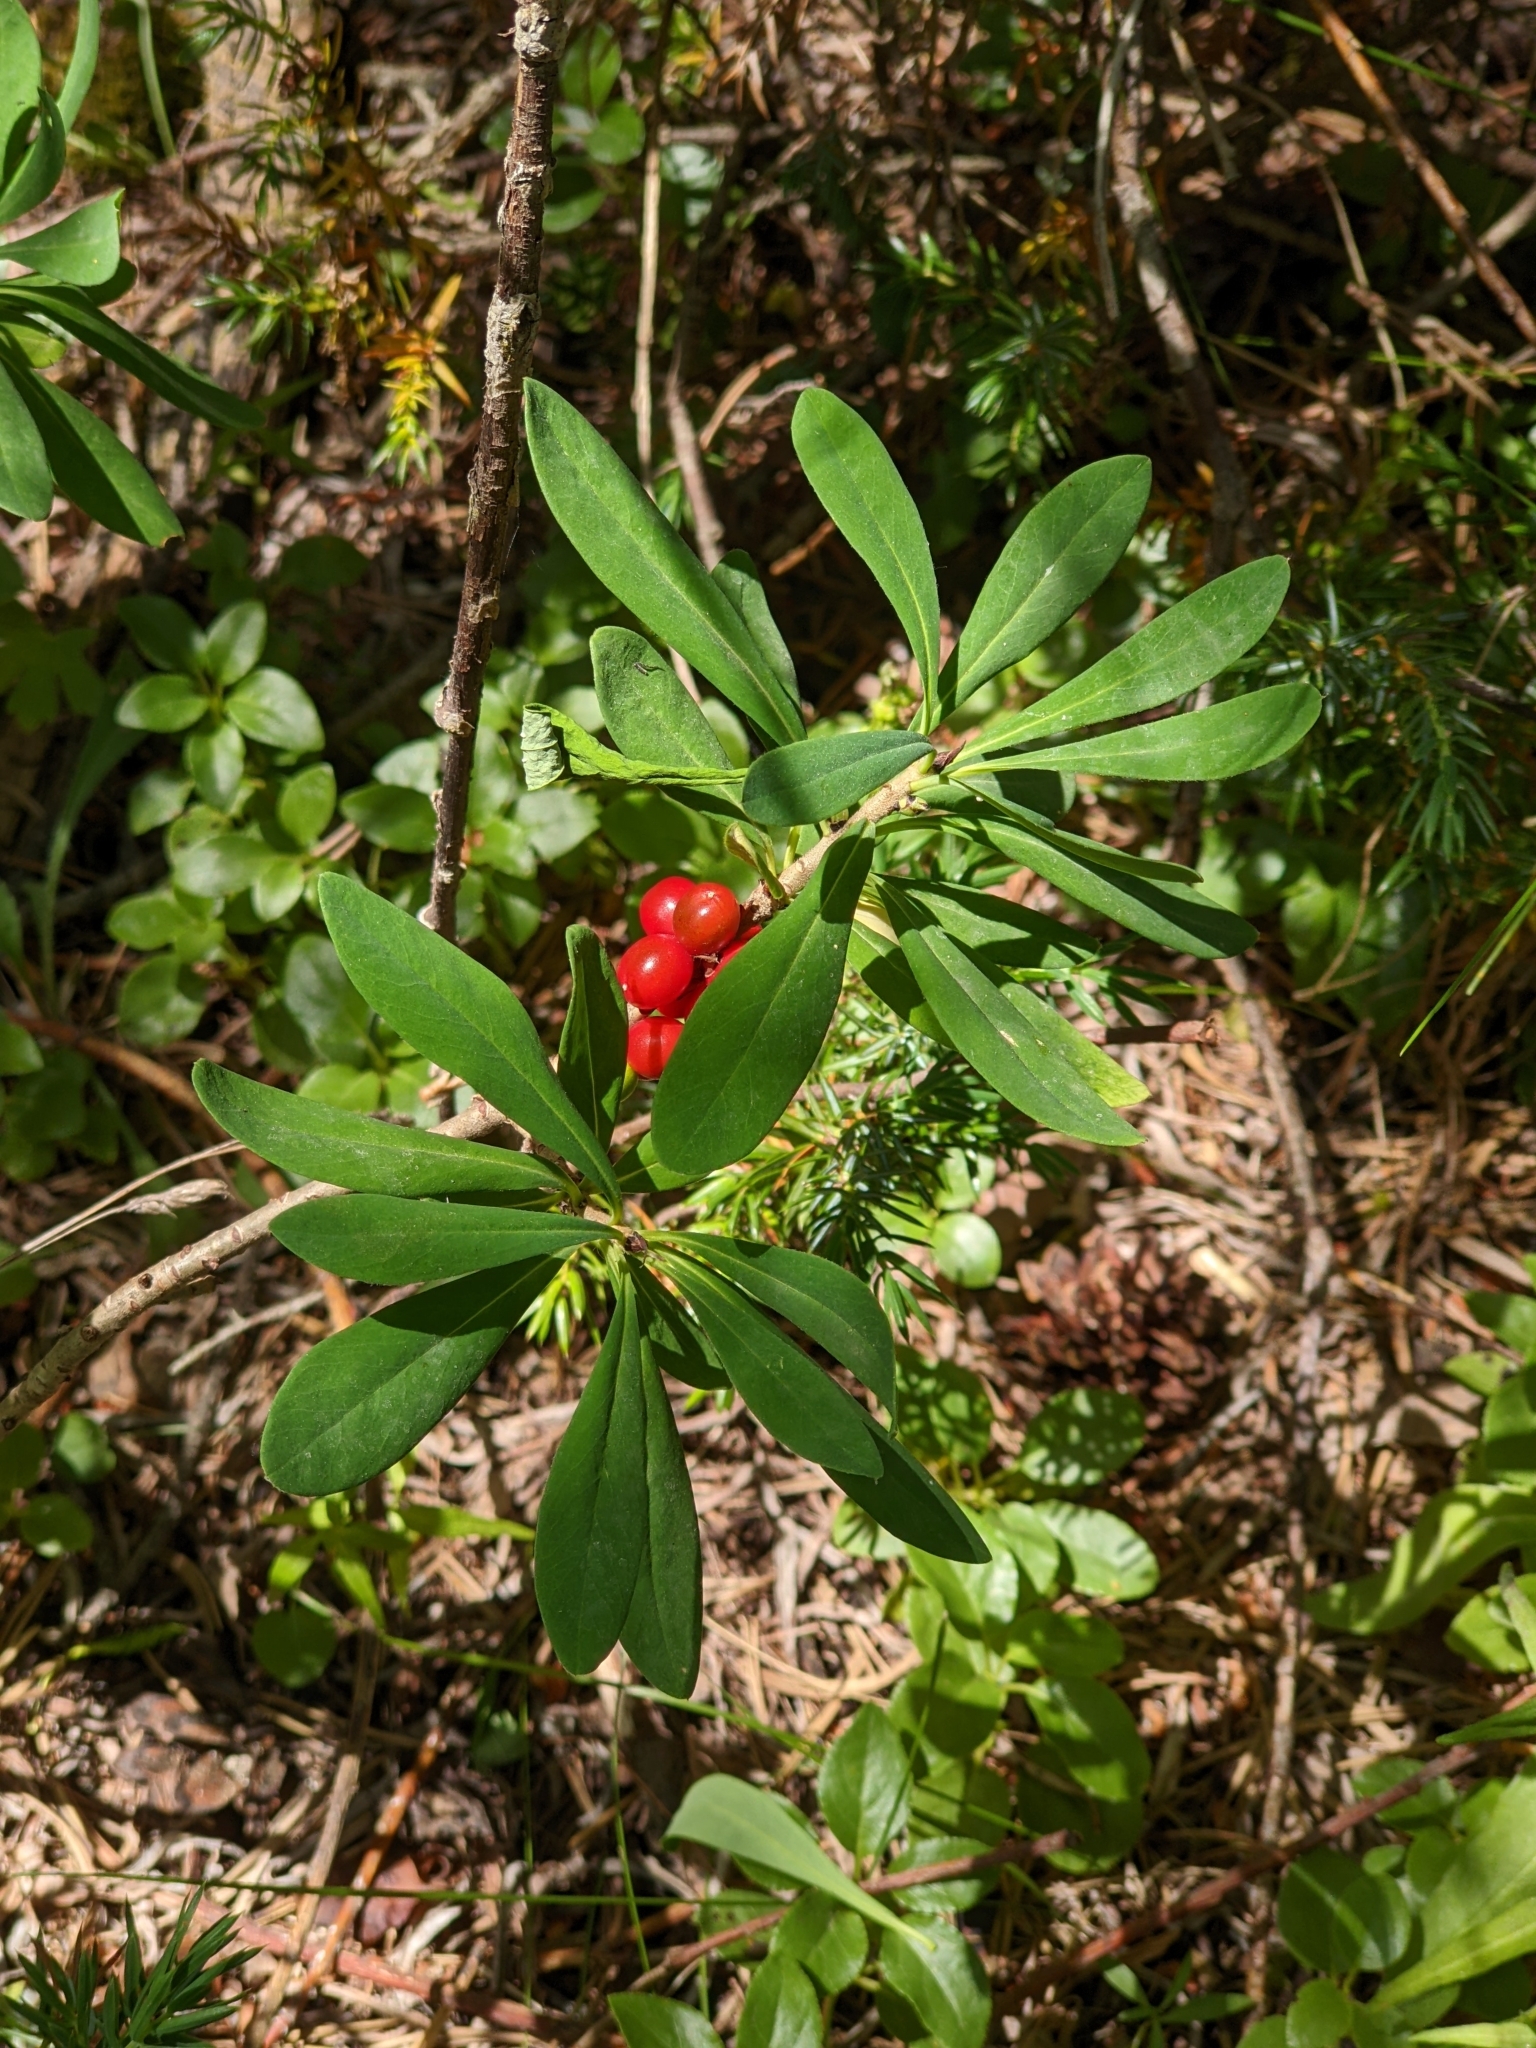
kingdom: Plantae
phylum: Tracheophyta
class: Magnoliopsida
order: Malvales
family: Thymelaeaceae
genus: Daphne
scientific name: Daphne mezereum
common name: Mezereon
